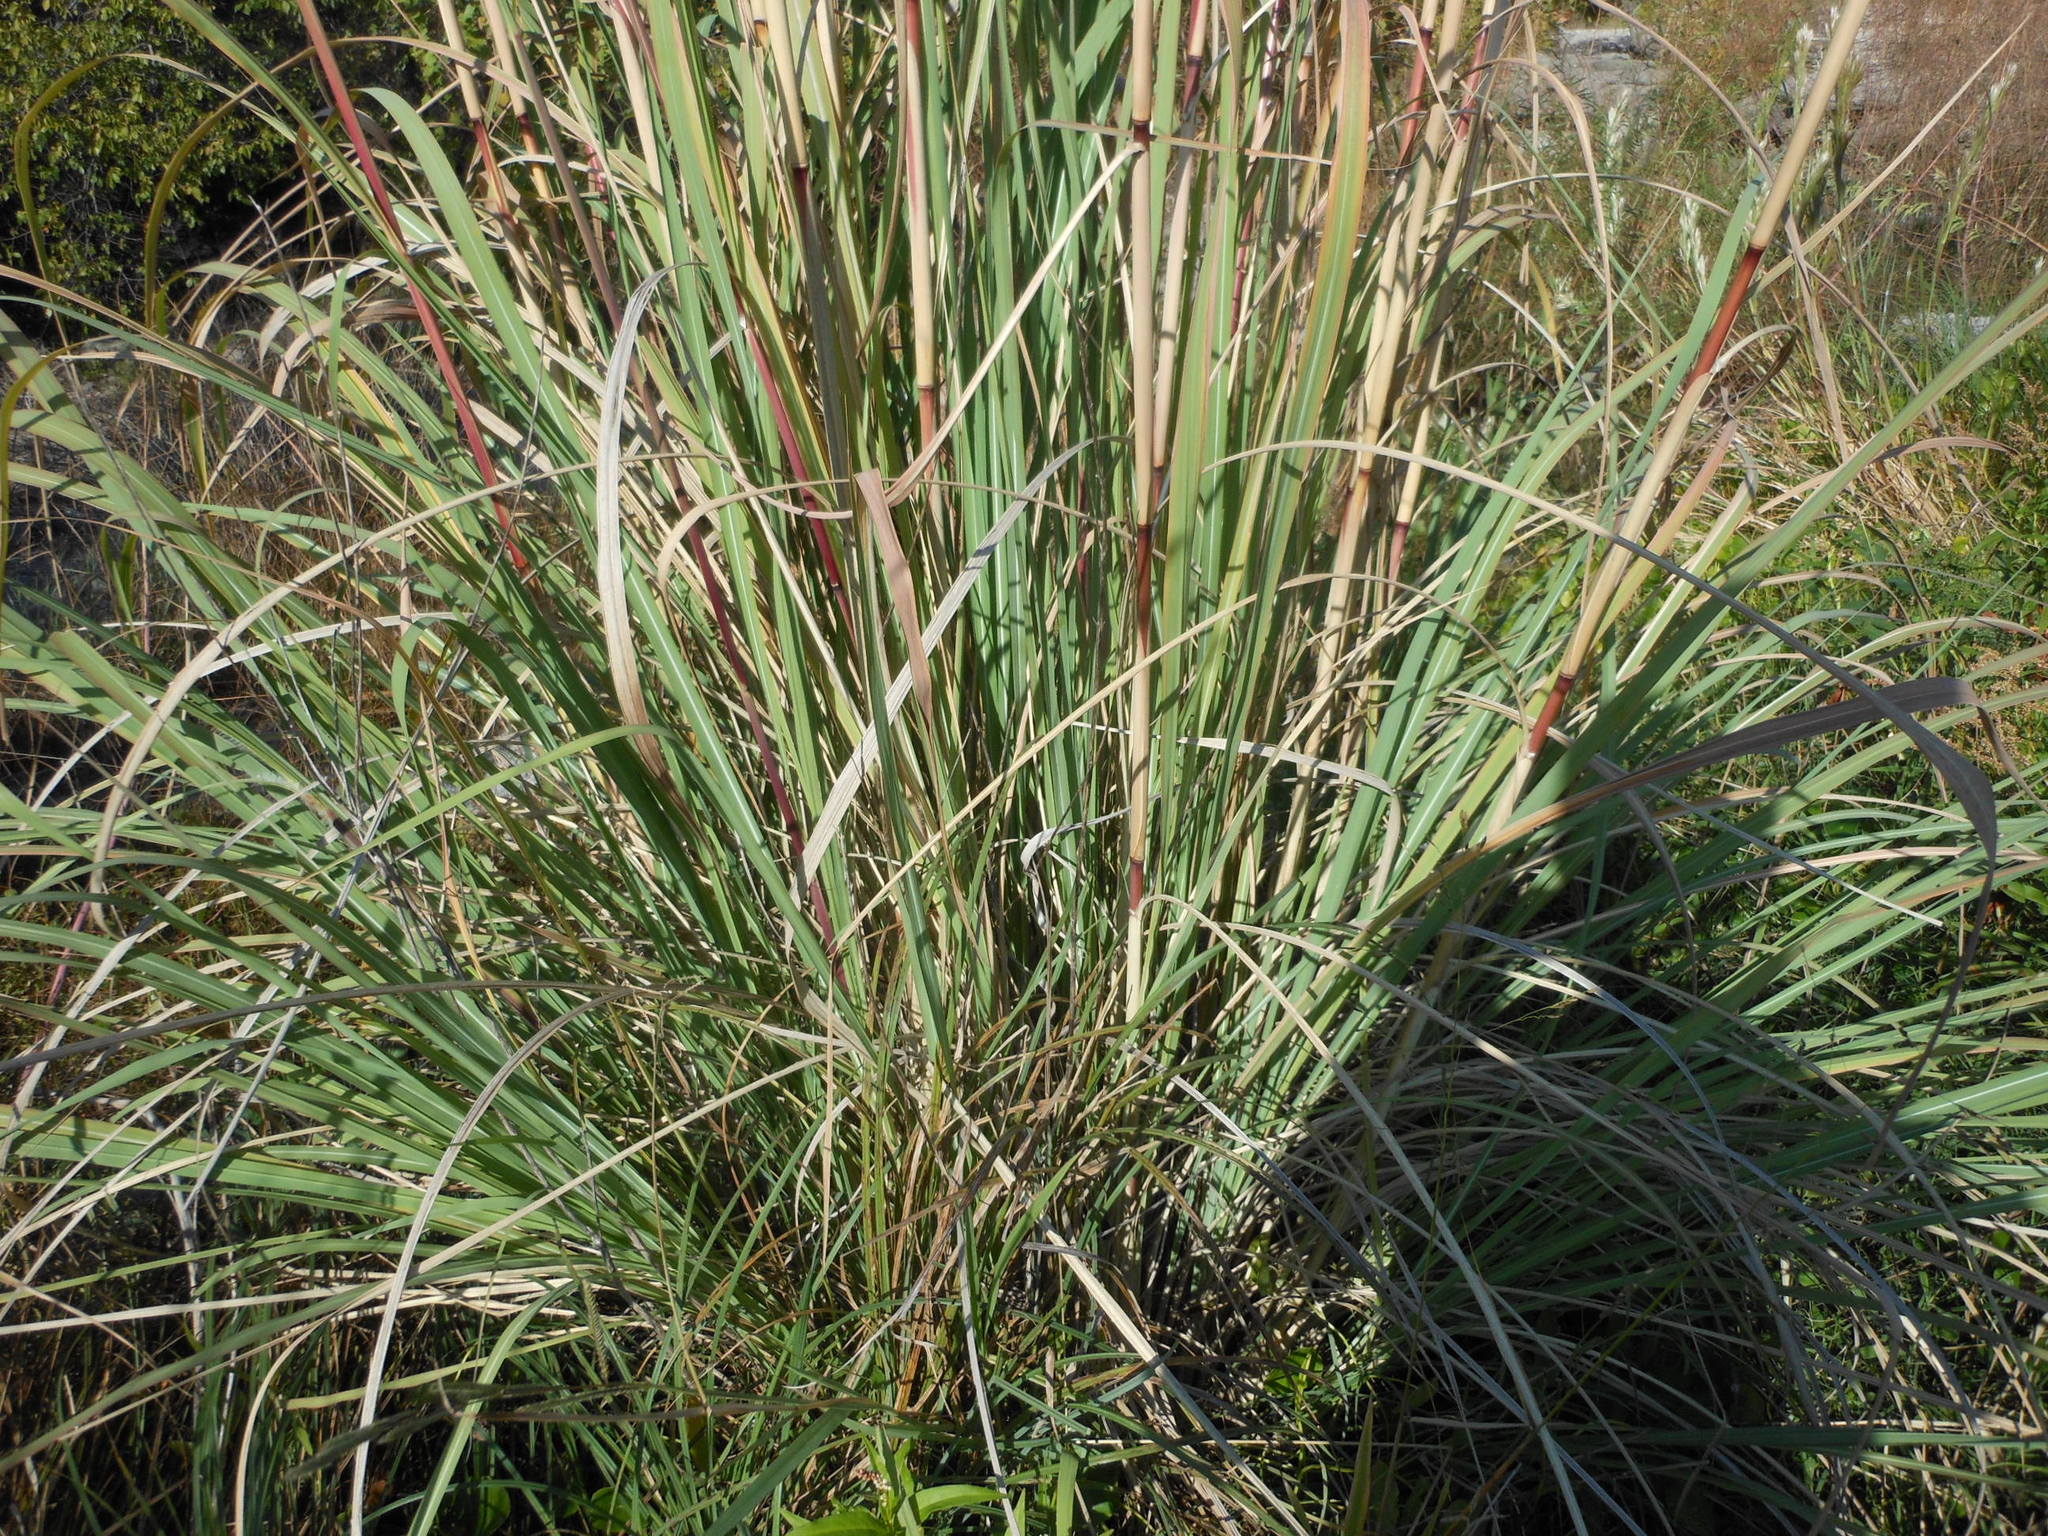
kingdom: Plantae
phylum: Tracheophyta
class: Liliopsida
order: Poales
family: Poaceae
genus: Tripidium
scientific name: Tripidium ravennae
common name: Ravenna grass
